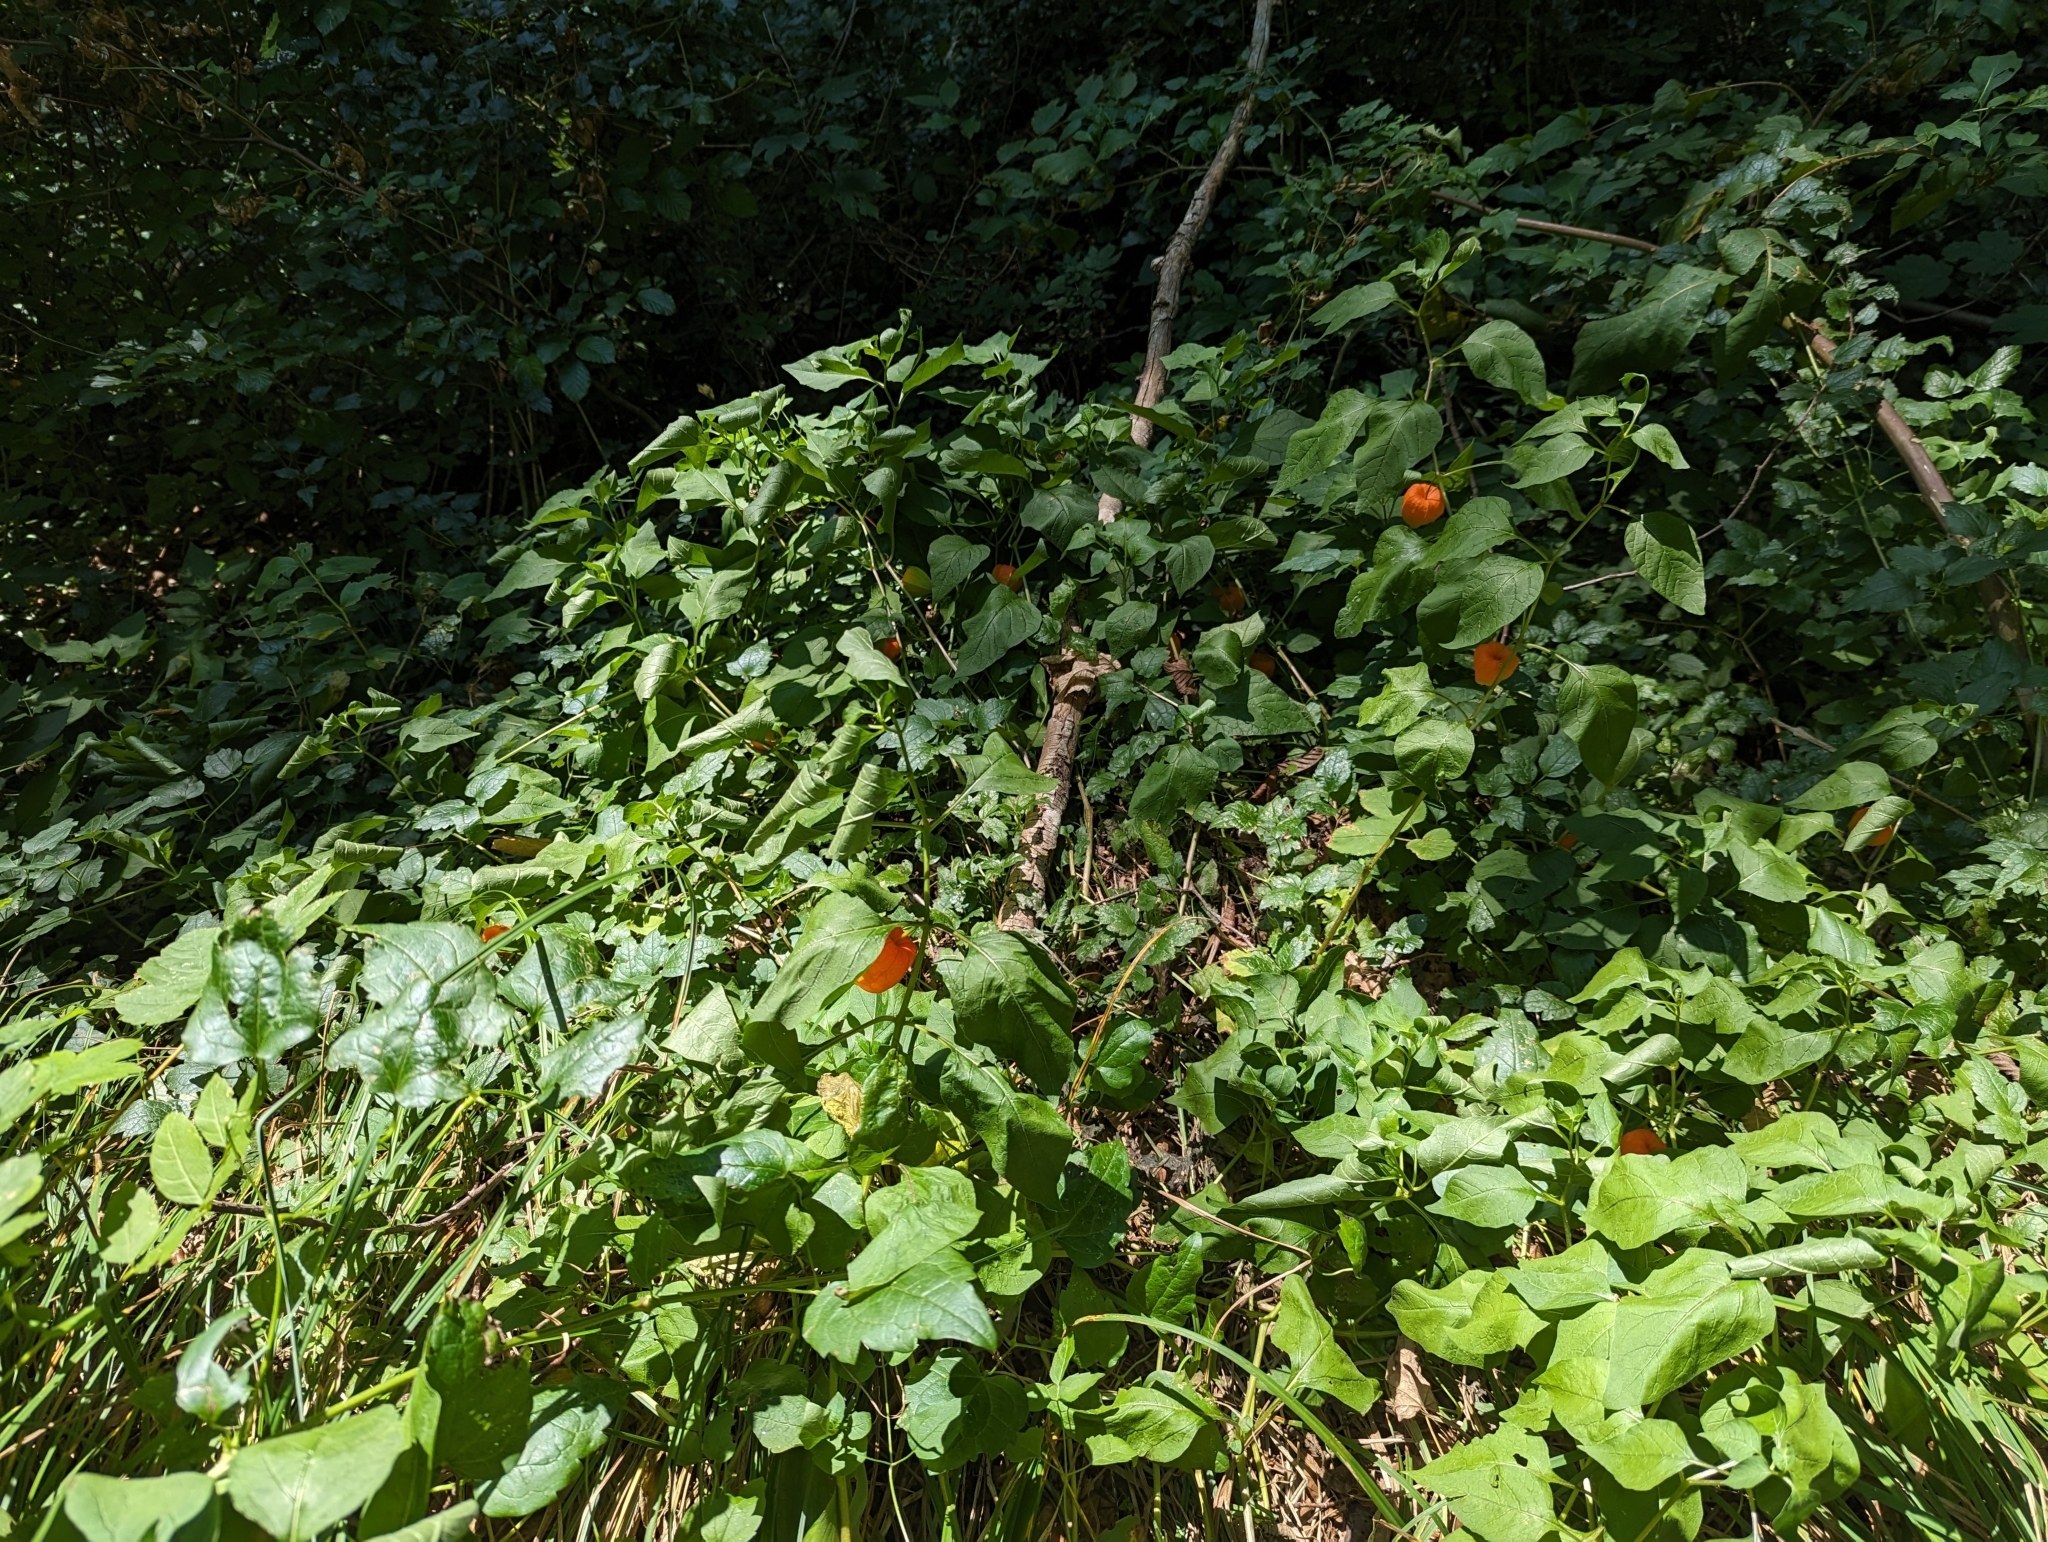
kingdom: Plantae
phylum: Tracheophyta
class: Magnoliopsida
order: Solanales
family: Solanaceae
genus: Alkekengi
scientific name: Alkekengi officinarum
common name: Japanese-lantern
